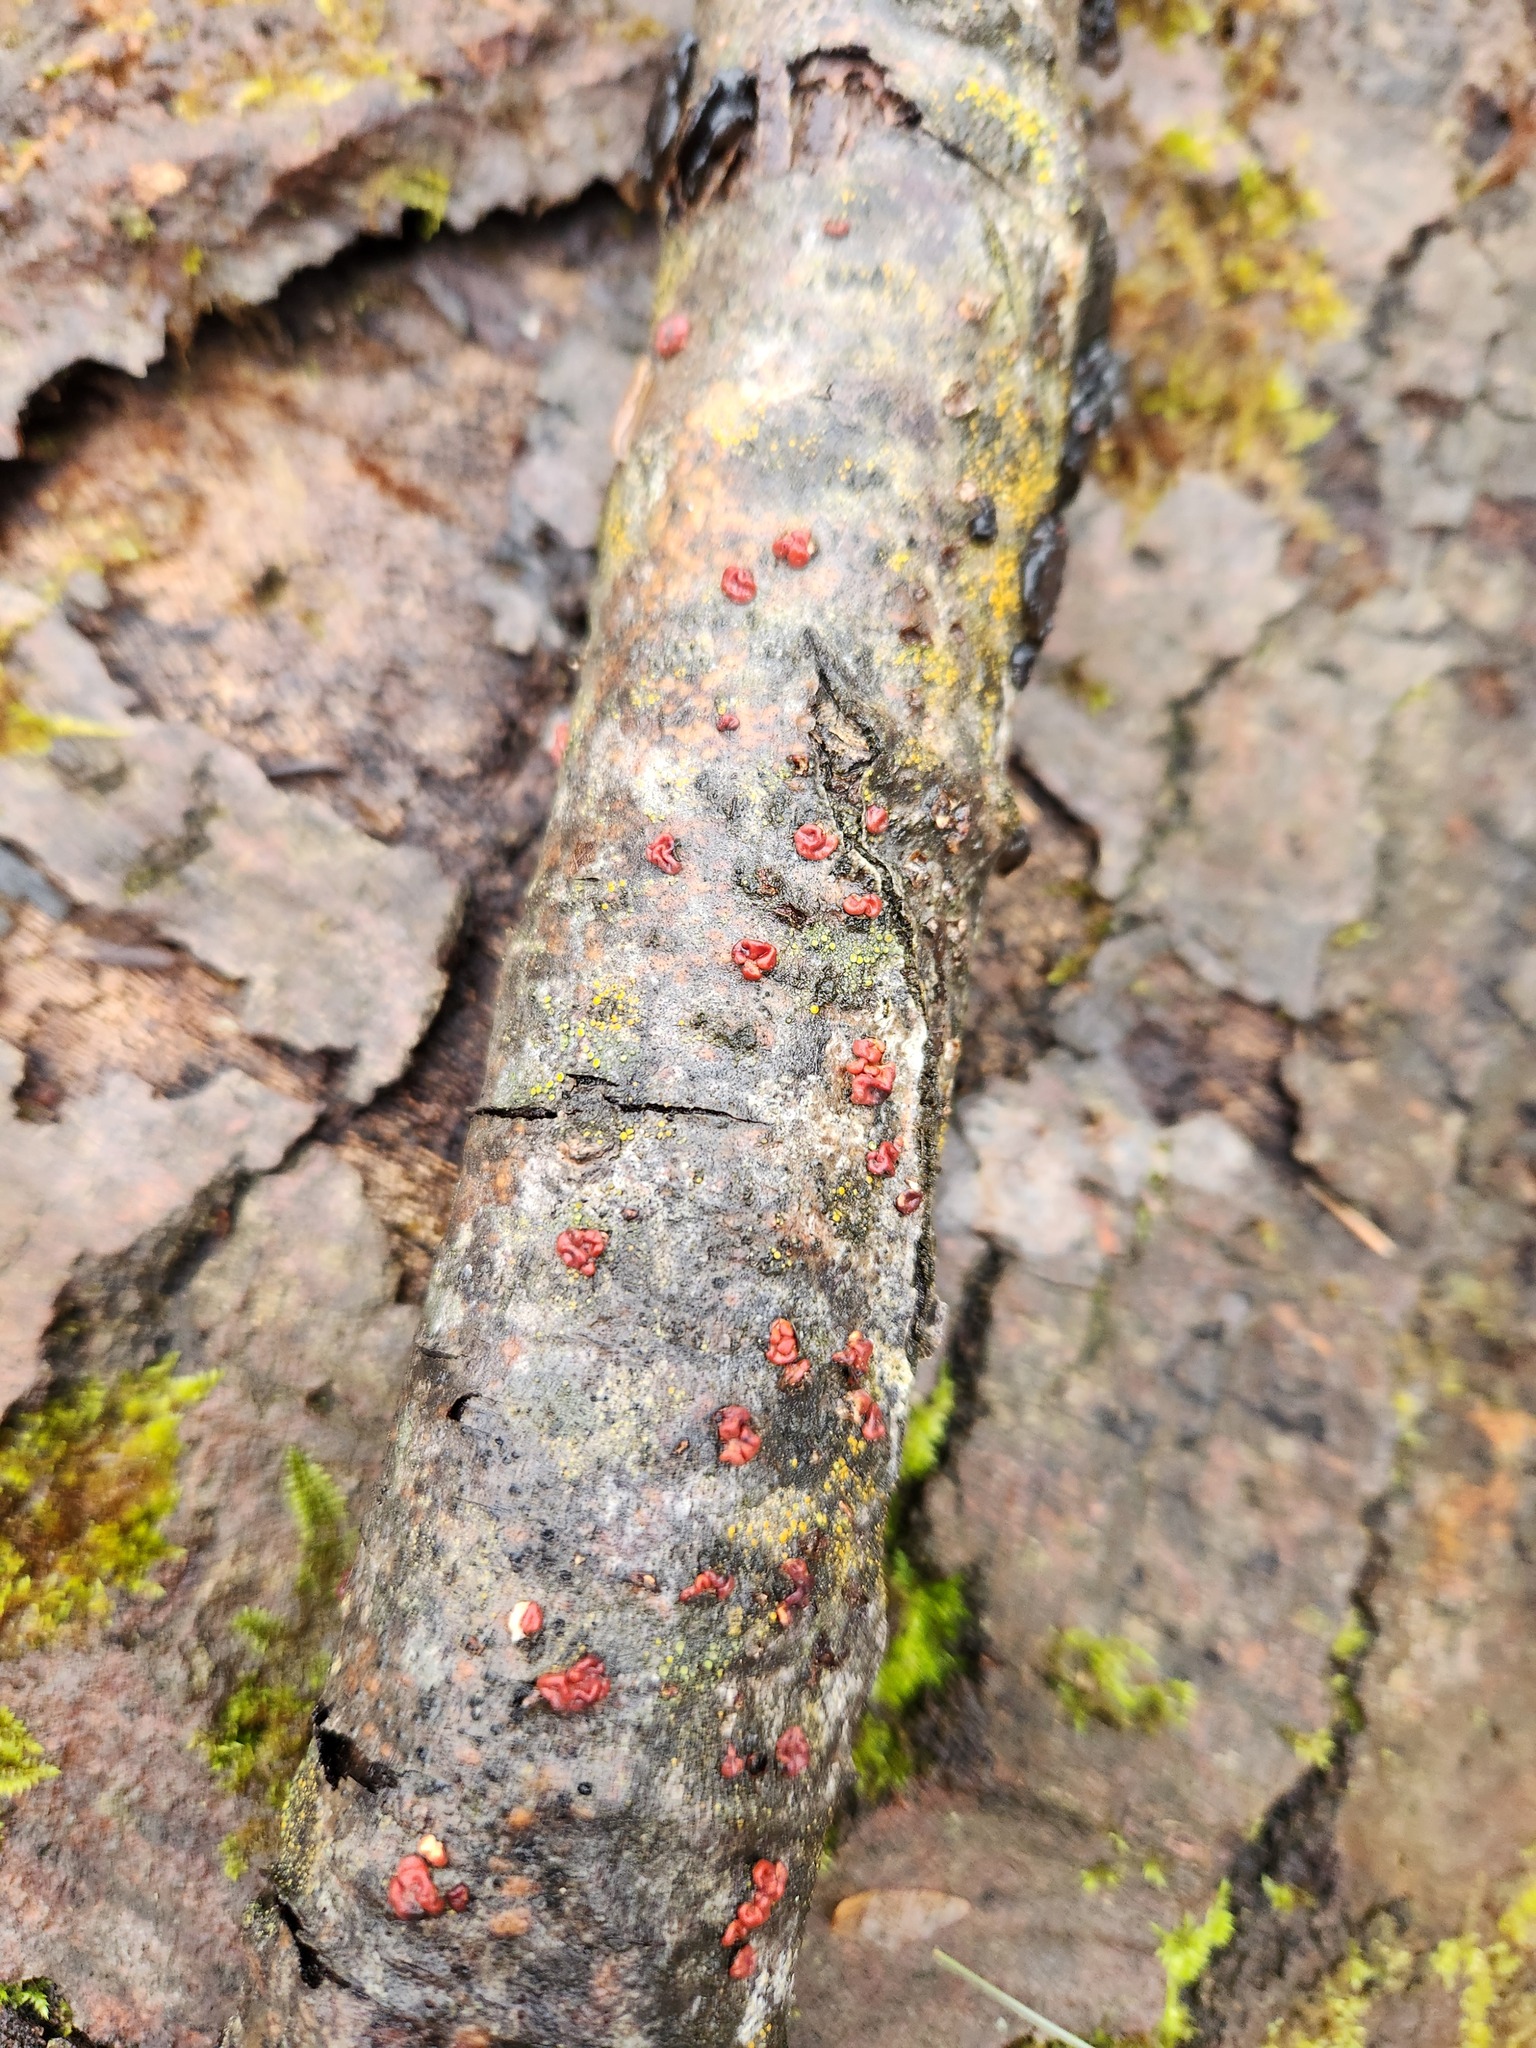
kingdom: Fungi
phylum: Basidiomycota
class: Agaricomycetes
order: Russulales
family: Peniophoraceae
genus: Peniophora
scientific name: Peniophora rufa
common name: Red tree brain fungus
